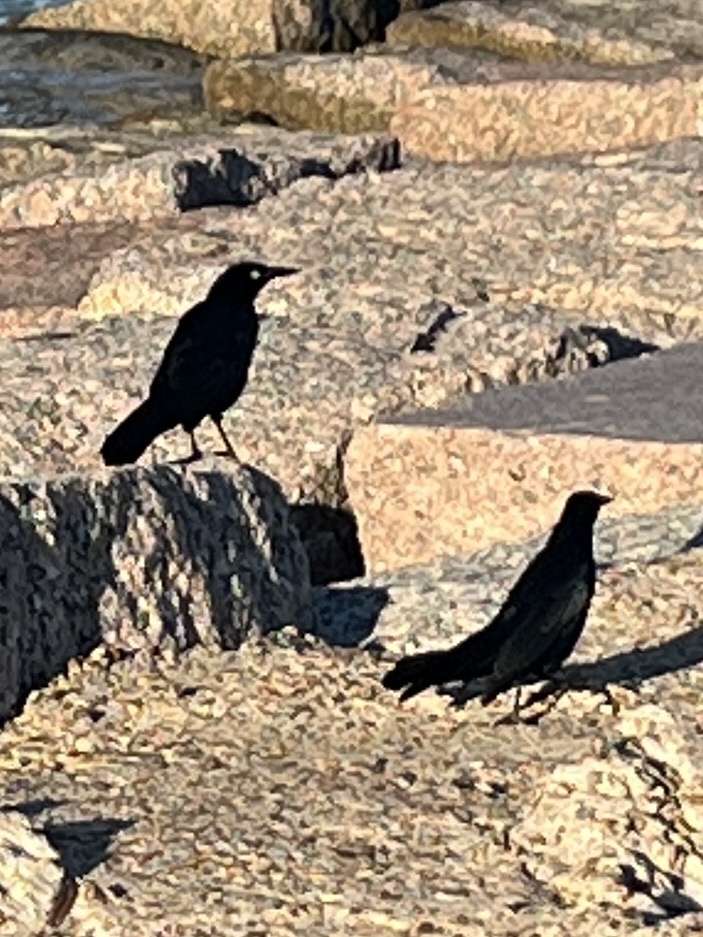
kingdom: Animalia
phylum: Chordata
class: Aves
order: Passeriformes
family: Icteridae
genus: Quiscalus
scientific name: Quiscalus mexicanus
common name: Great-tailed grackle
